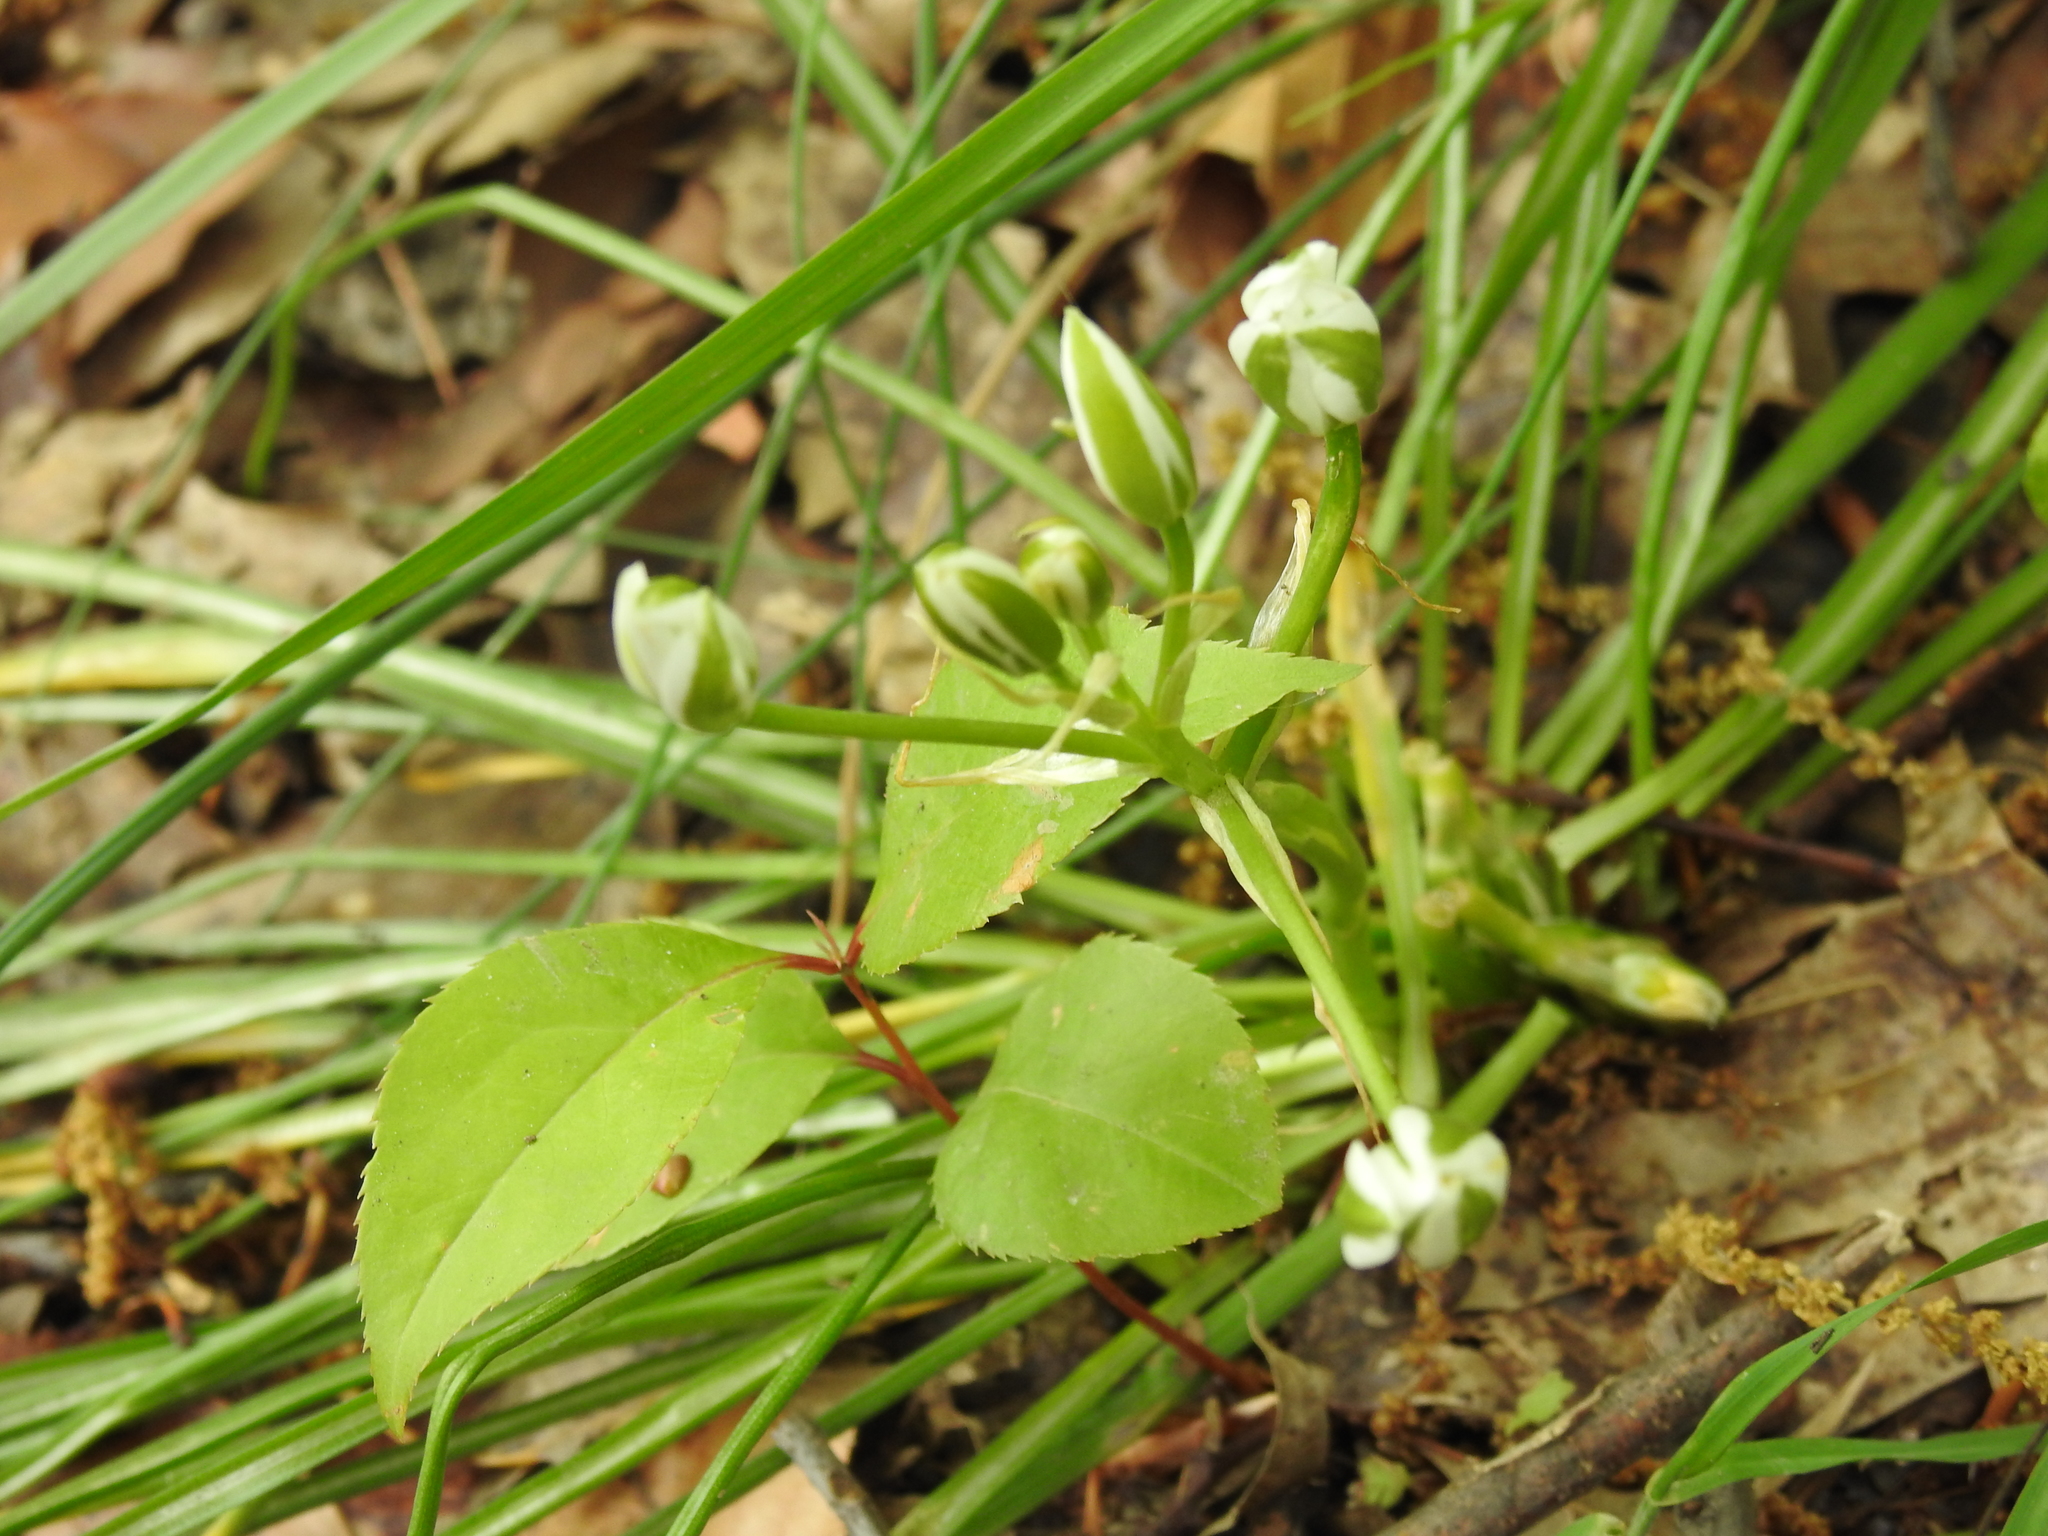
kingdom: Plantae
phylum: Tracheophyta
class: Liliopsida
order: Asparagales
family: Asparagaceae
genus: Ornithogalum
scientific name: Ornithogalum umbellatum
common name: Garden star-of-bethlehem
